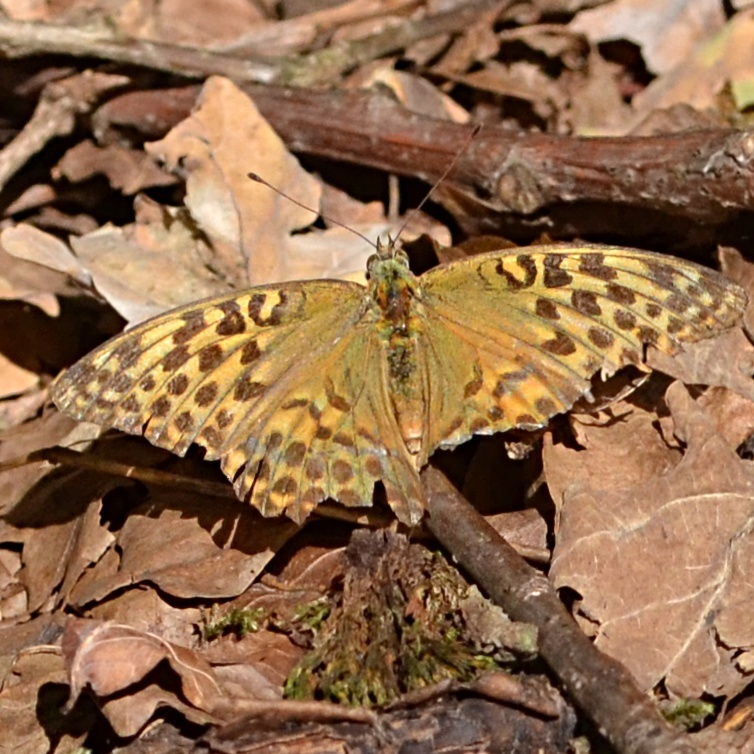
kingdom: Animalia
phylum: Arthropoda
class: Insecta
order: Lepidoptera
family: Nymphalidae
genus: Argynnis
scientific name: Argynnis paphia
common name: Silver-washed fritillary
